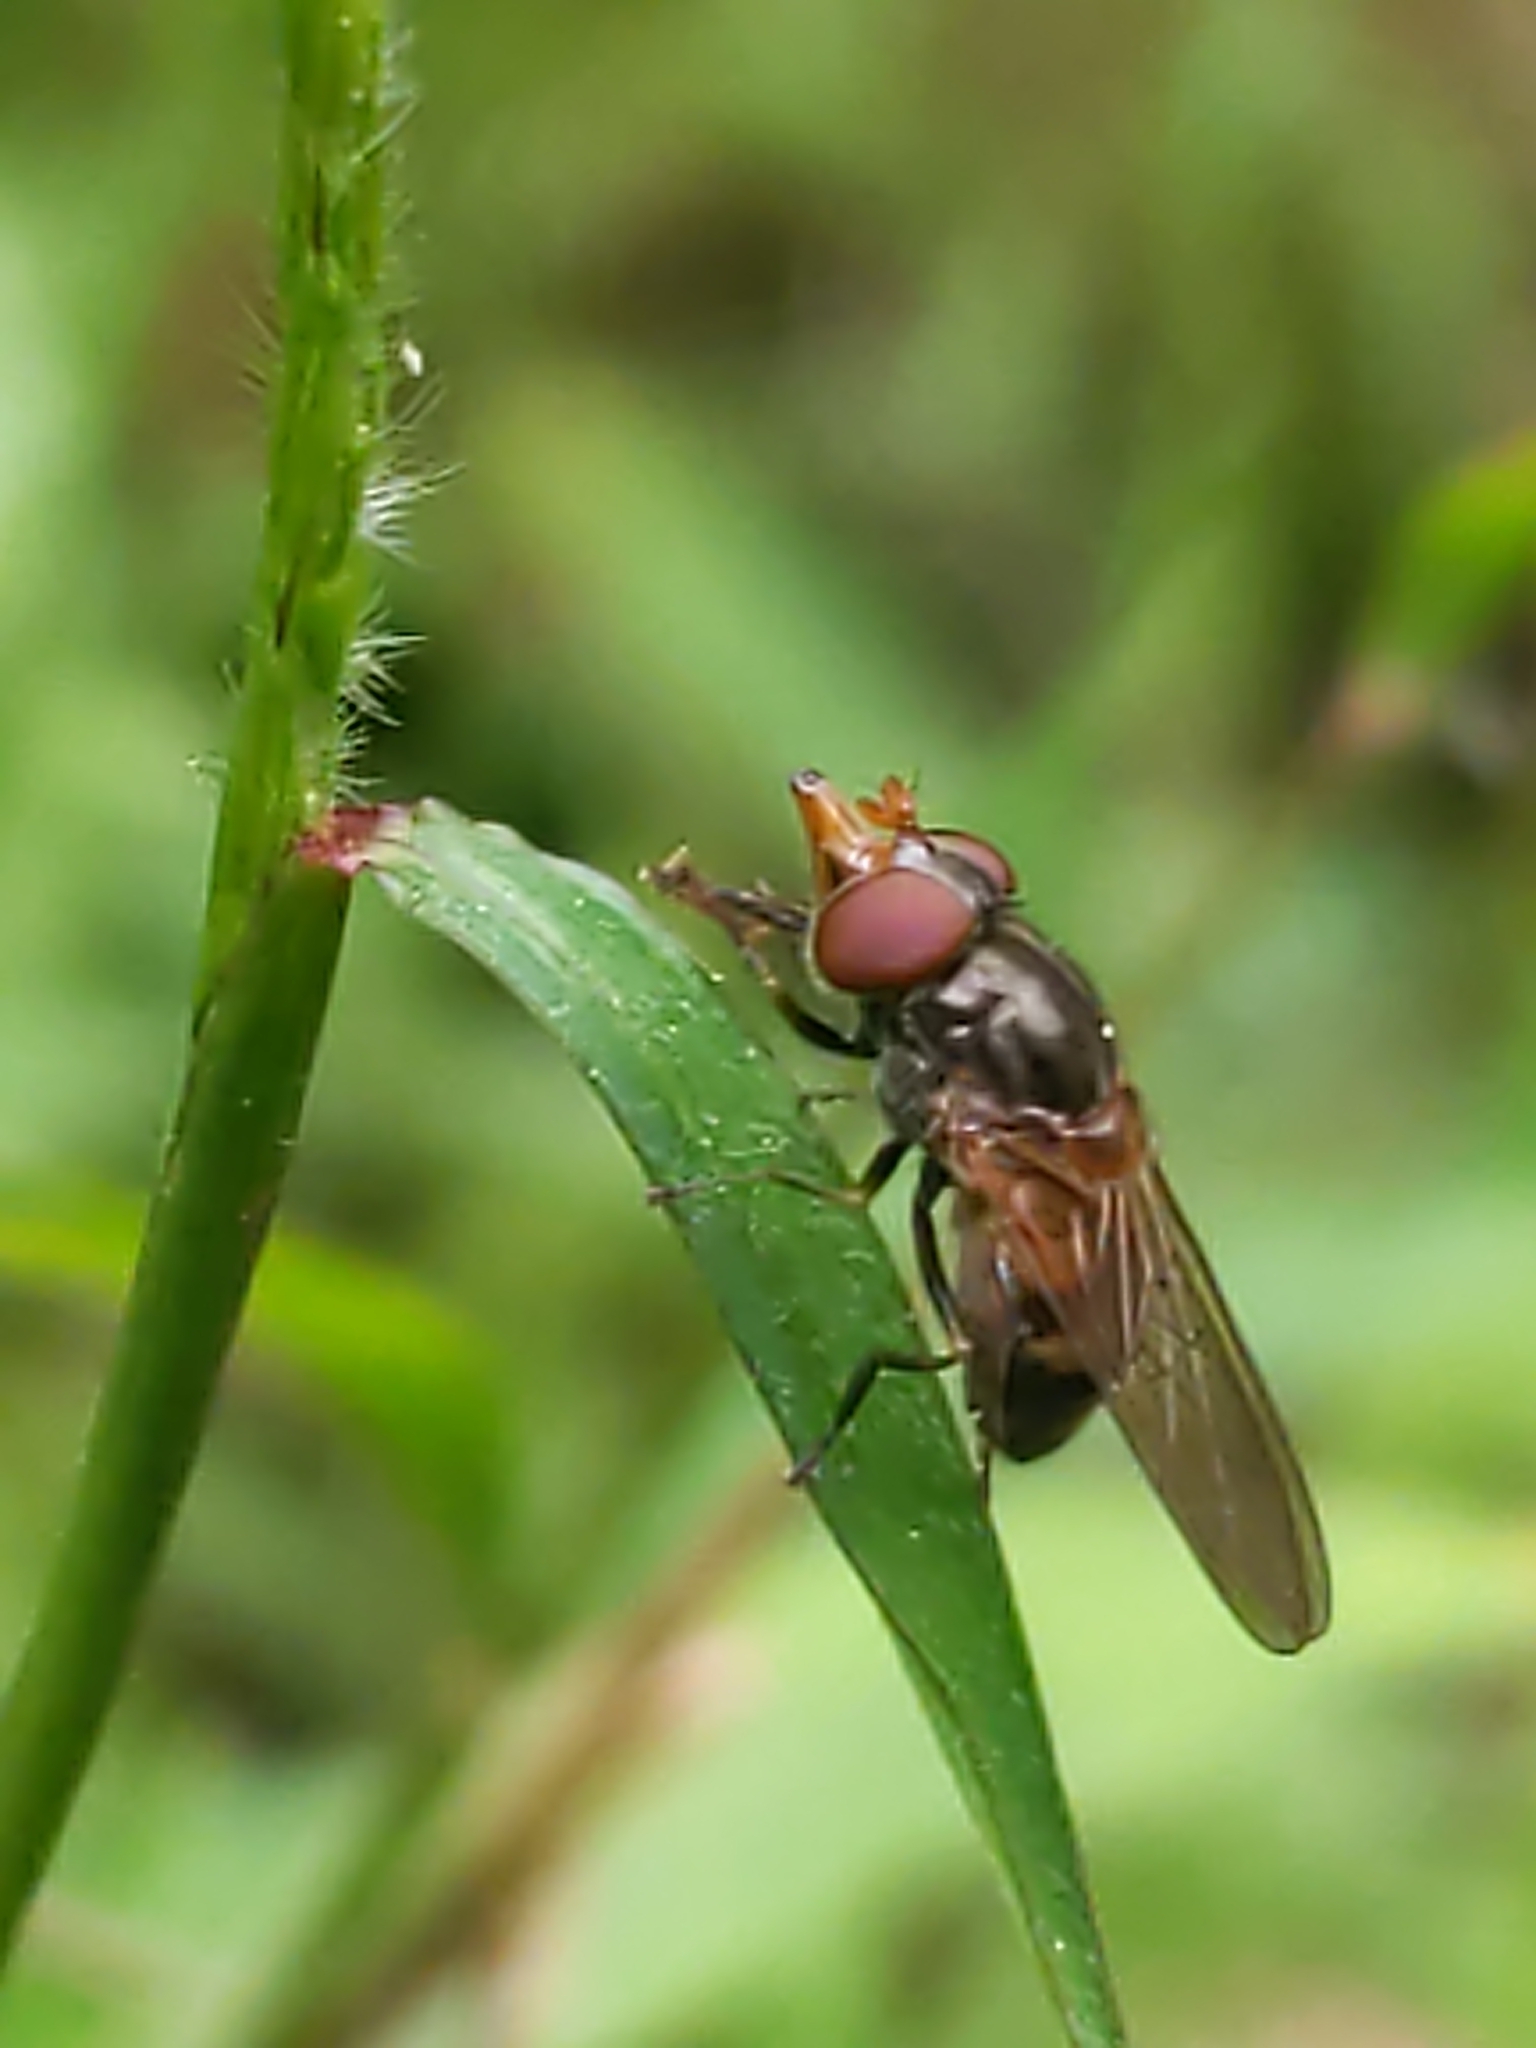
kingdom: Animalia
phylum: Arthropoda
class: Insecta
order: Diptera
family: Syrphidae
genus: Rhingia
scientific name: Rhingia nasica
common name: American snout fly
